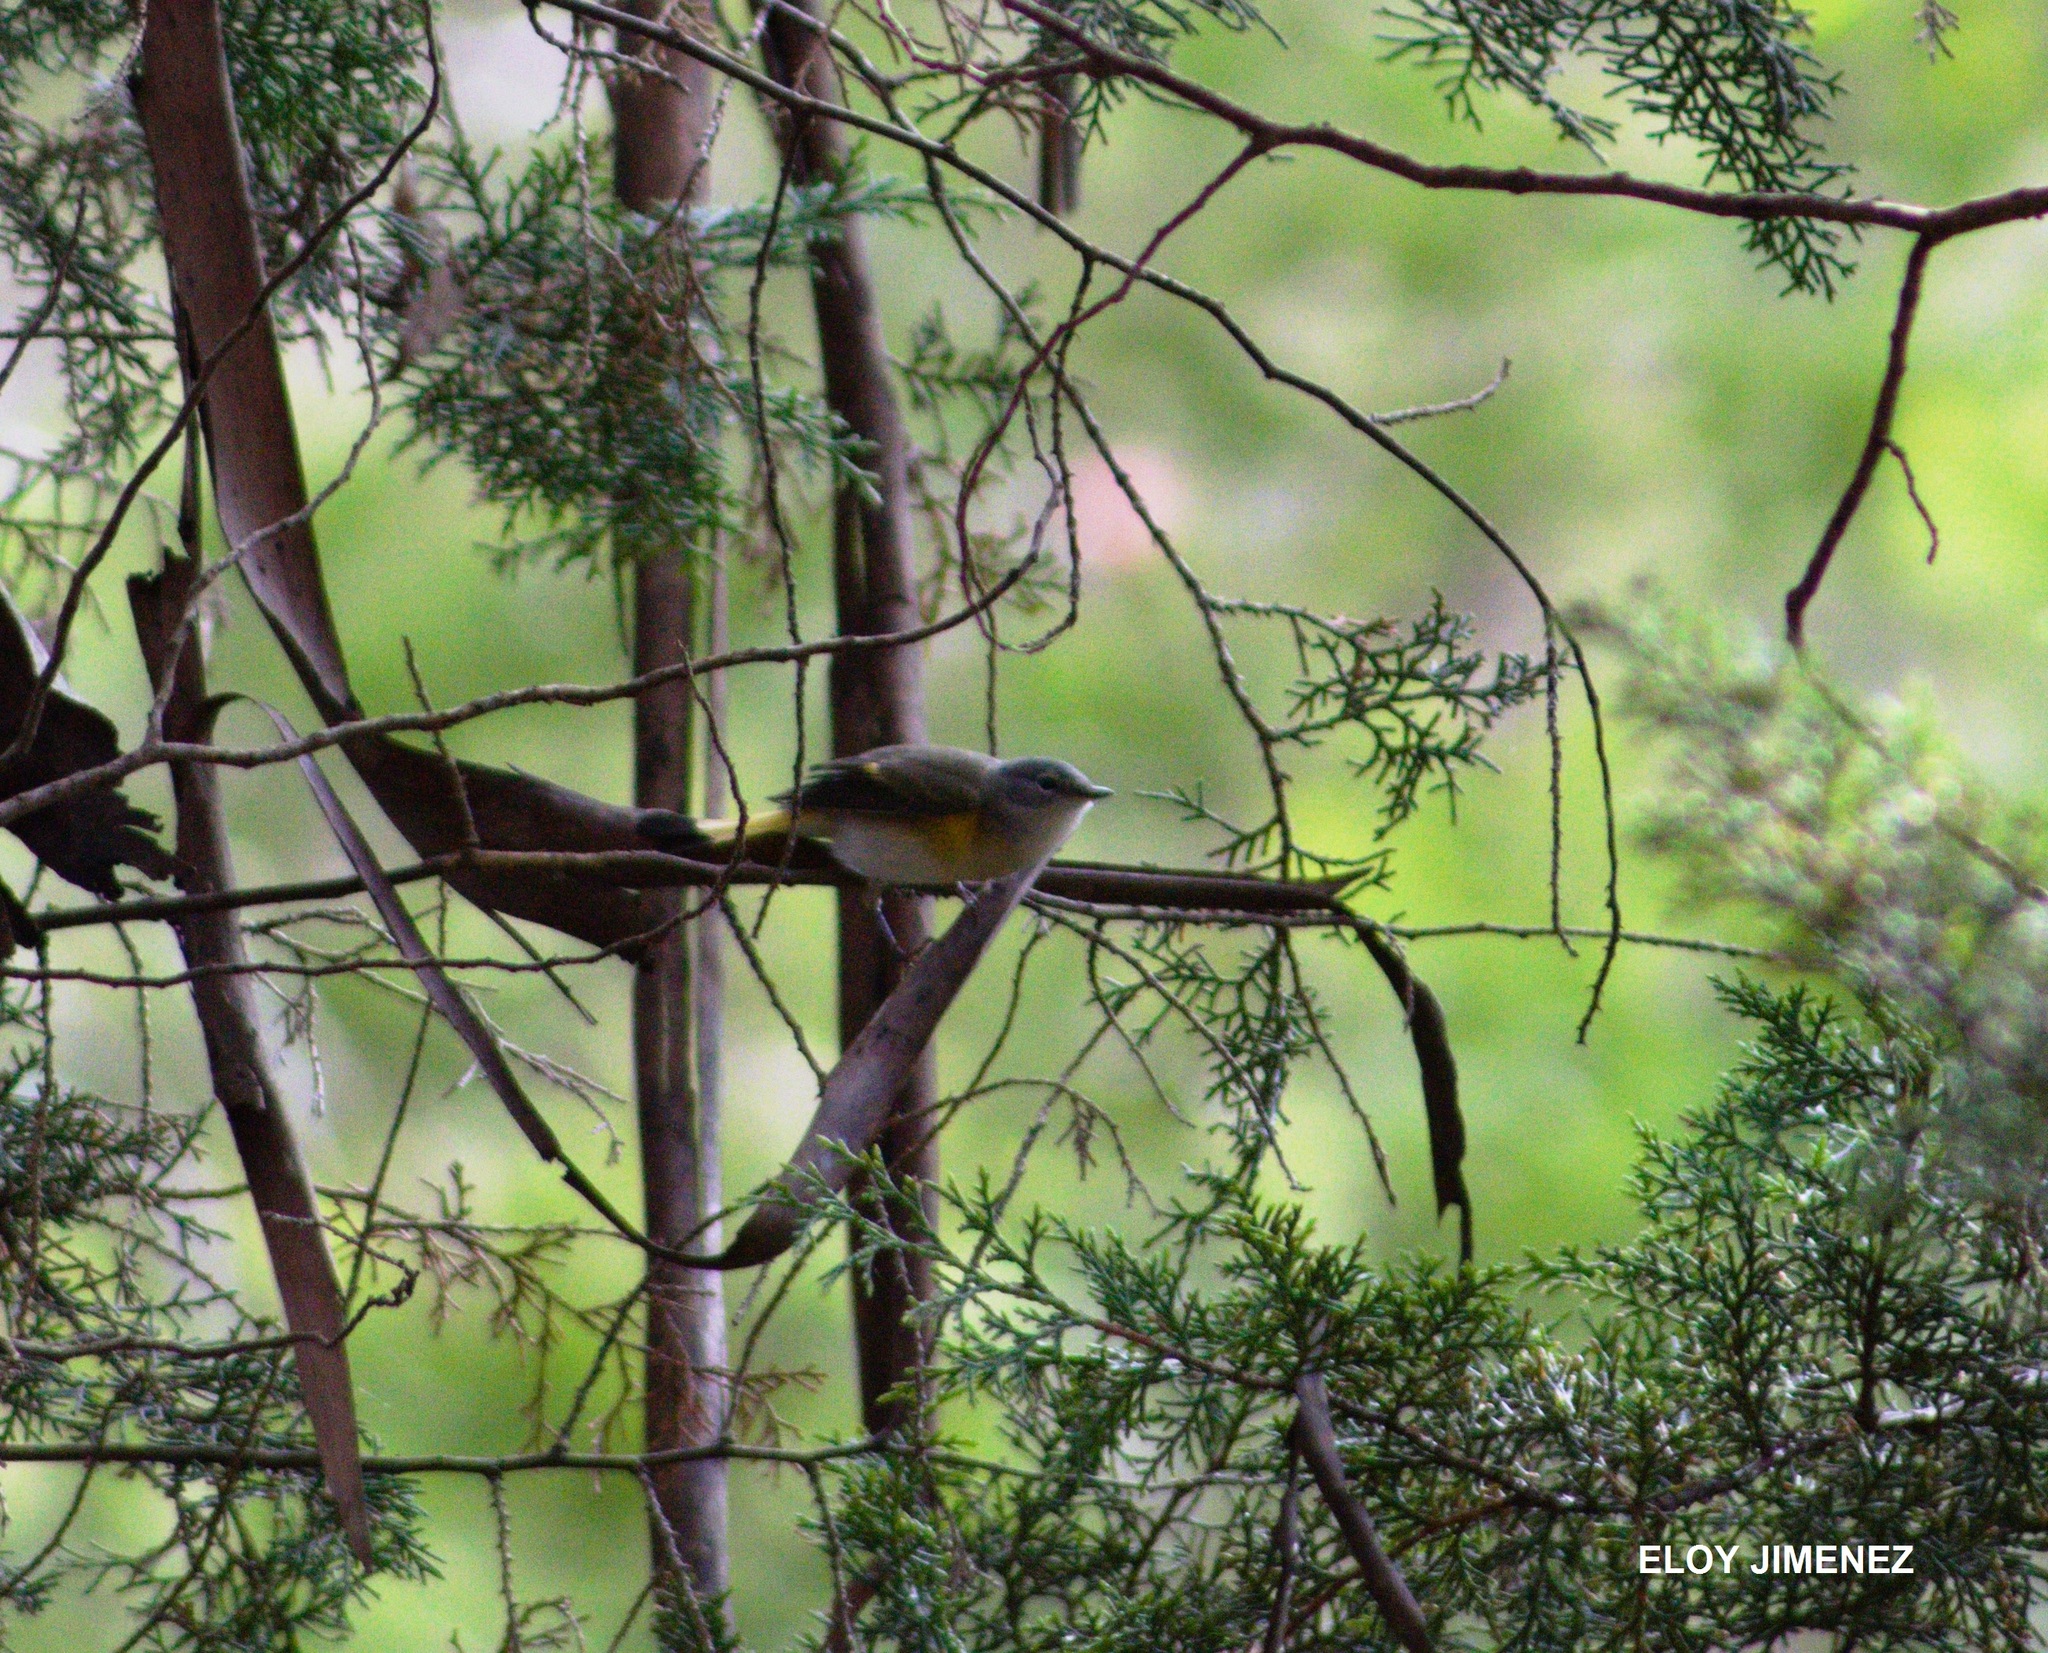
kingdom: Animalia
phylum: Chordata
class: Aves
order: Passeriformes
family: Parulidae
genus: Setophaga
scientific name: Setophaga ruticilla
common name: American redstart
